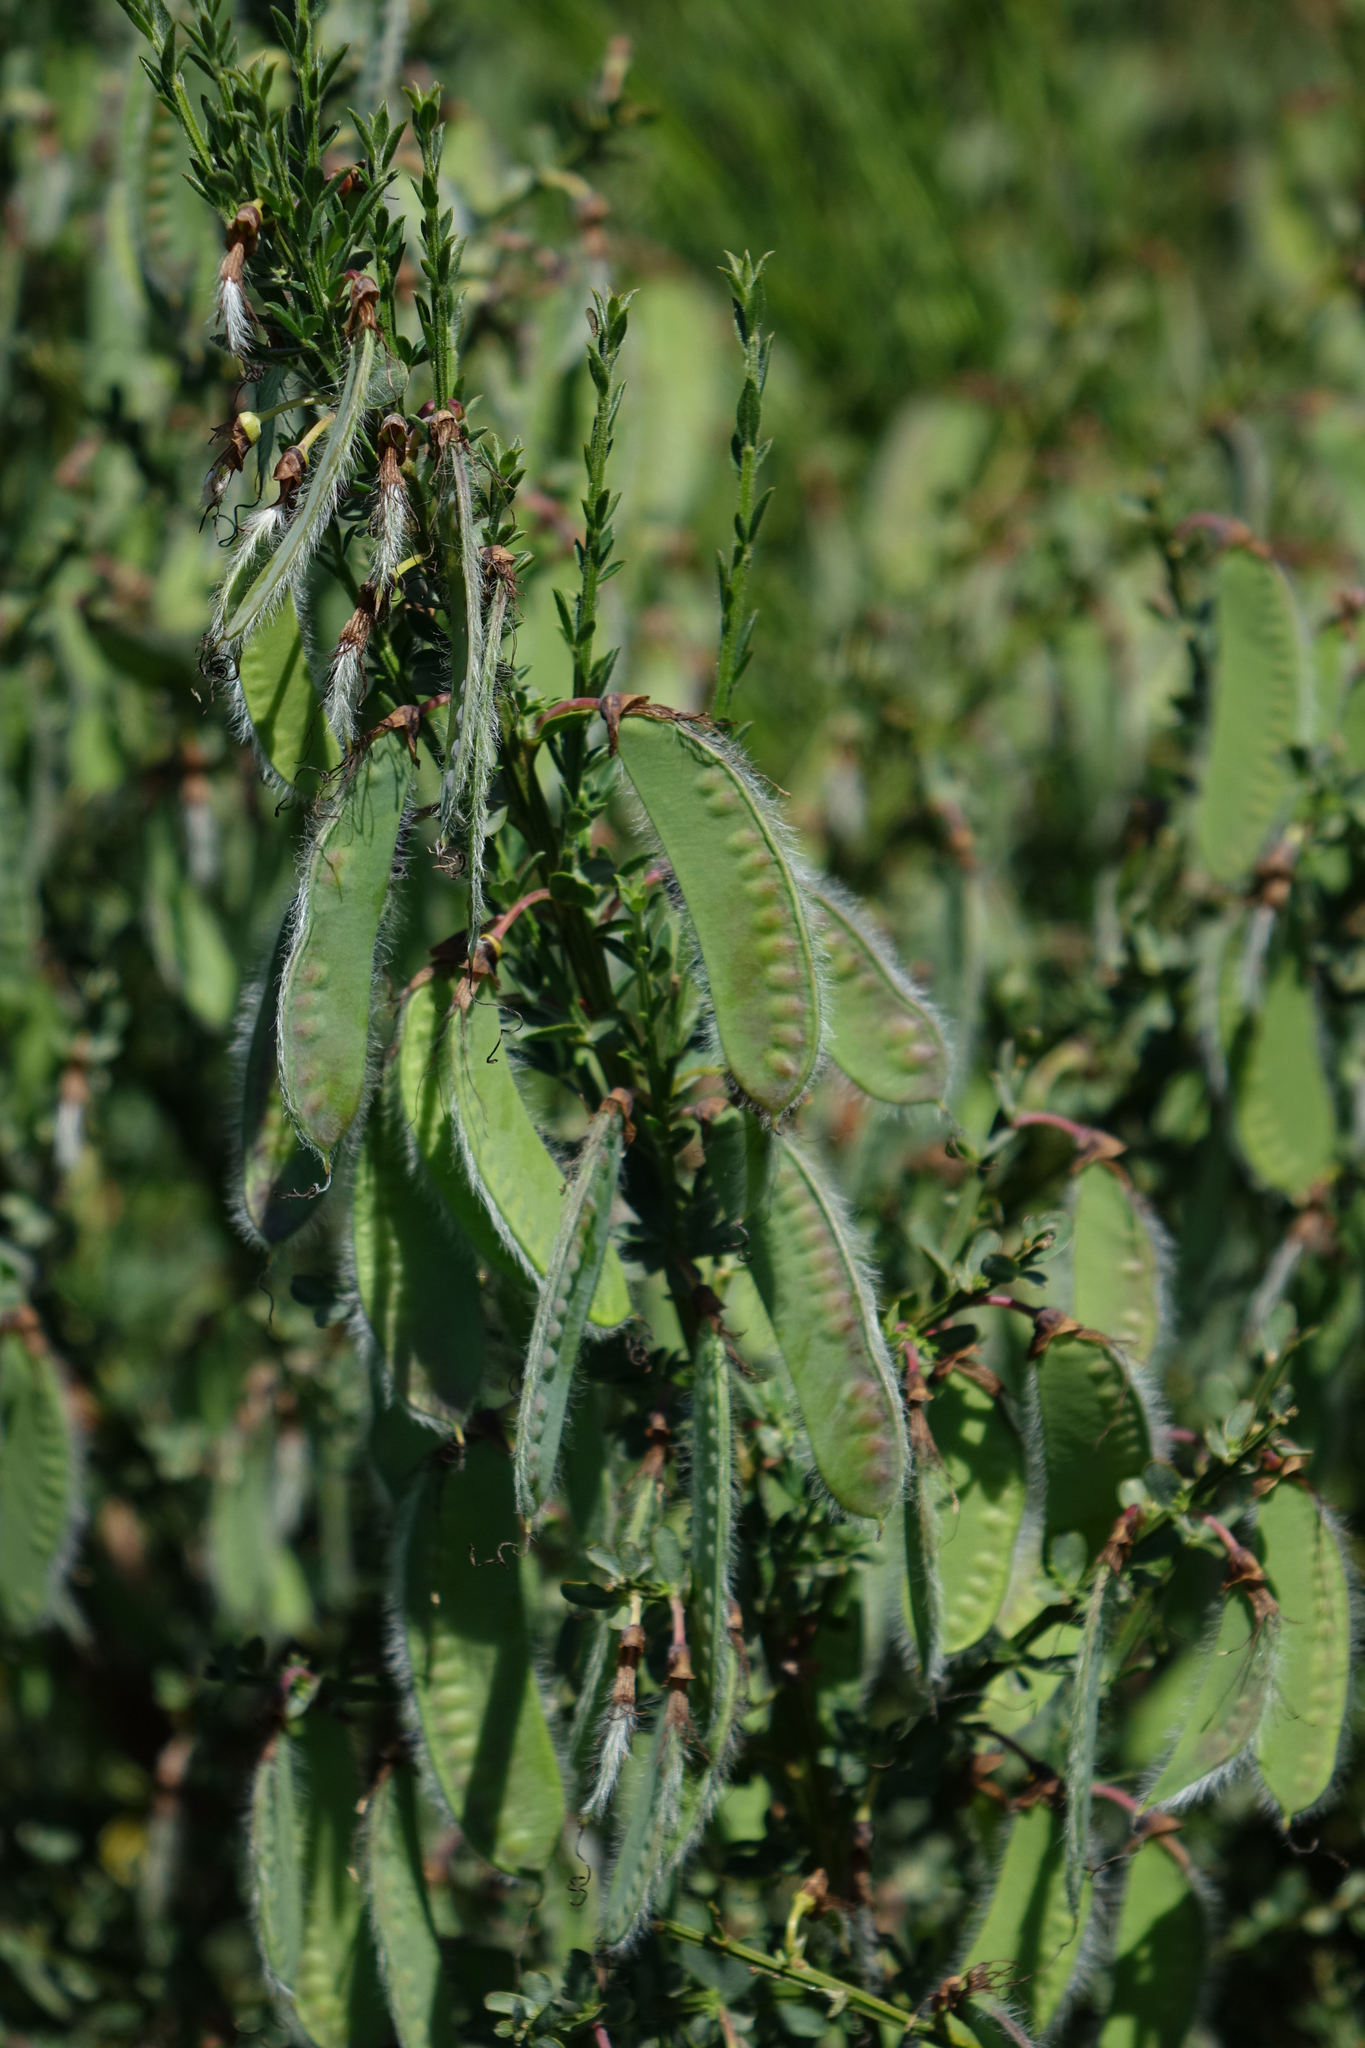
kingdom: Plantae
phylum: Tracheophyta
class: Magnoliopsida
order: Fabales
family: Fabaceae
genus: Cytisus
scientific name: Cytisus scoparius
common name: Scotch broom
